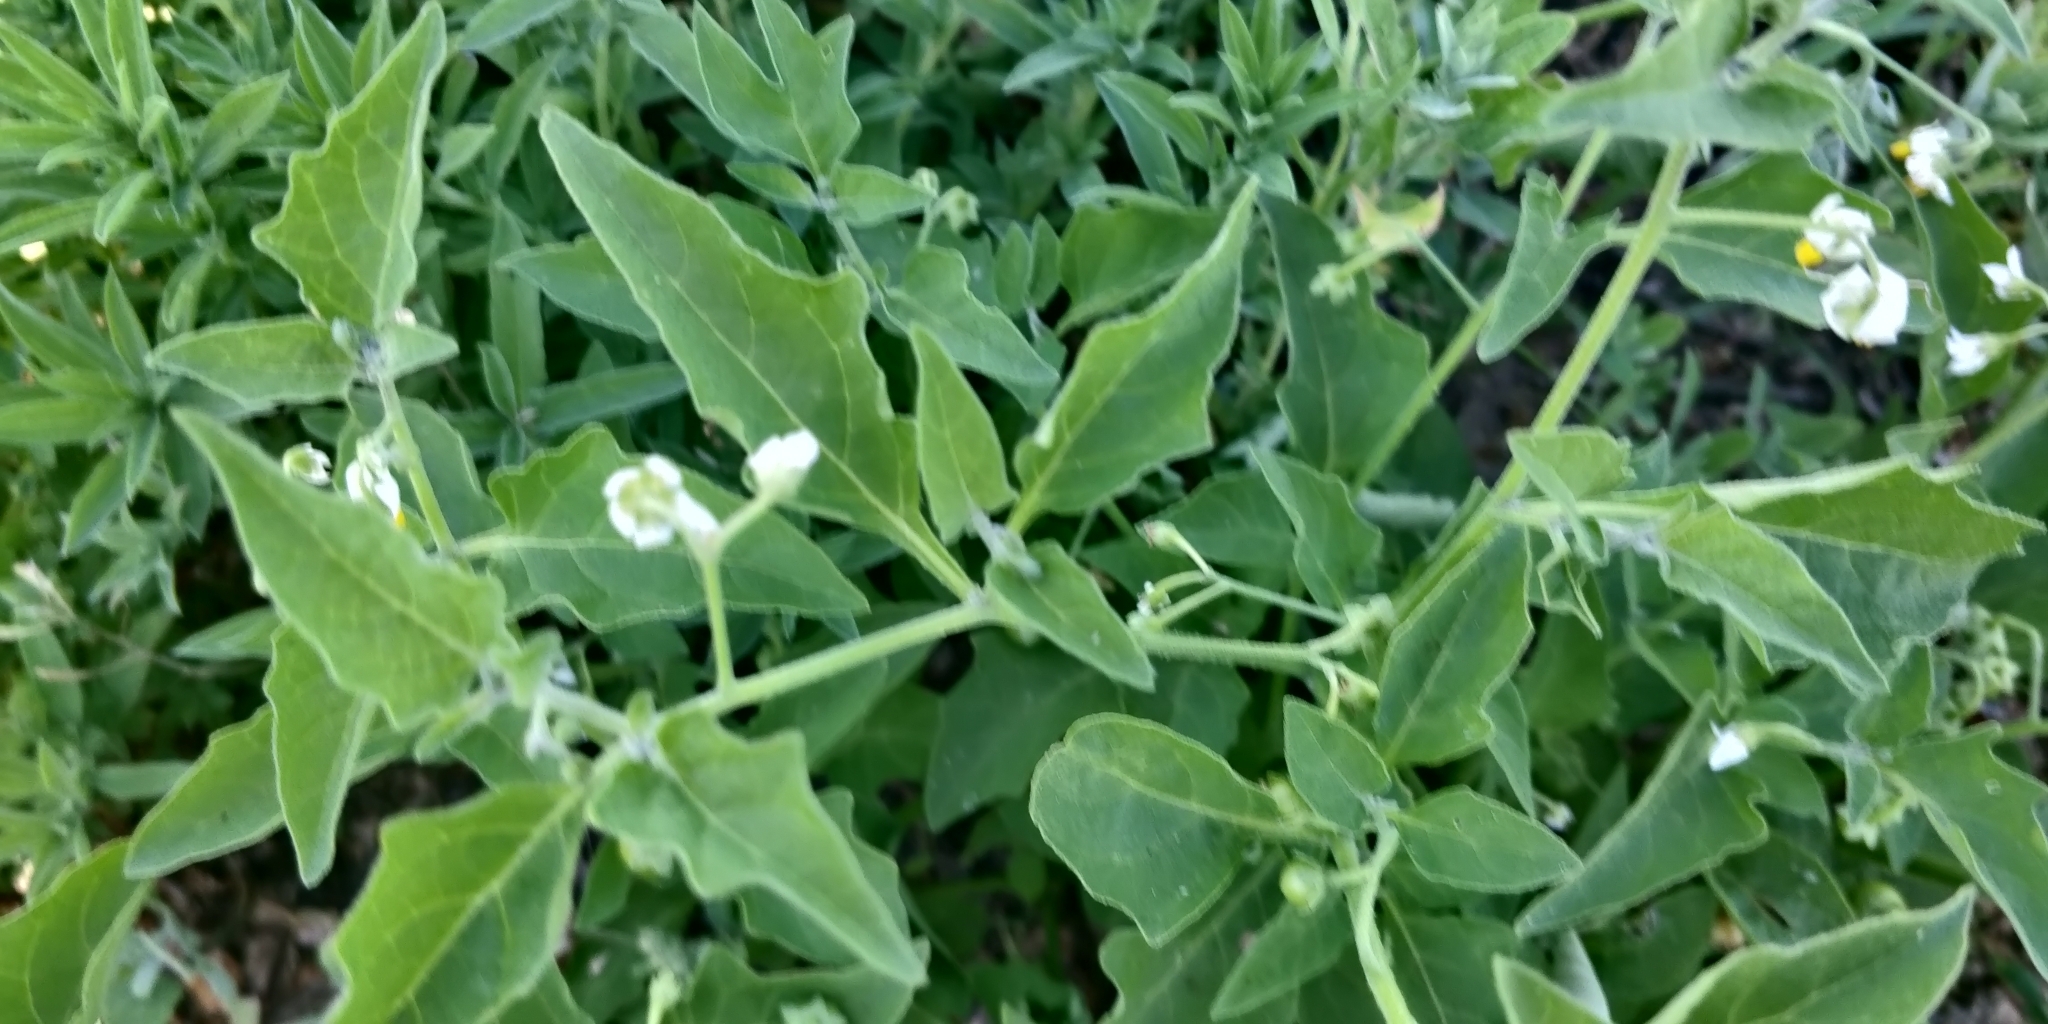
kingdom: Plantae
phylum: Tracheophyta
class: Magnoliopsida
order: Solanales
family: Solanaceae
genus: Solanum
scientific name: Solanum interius
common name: Plains black nightshade
